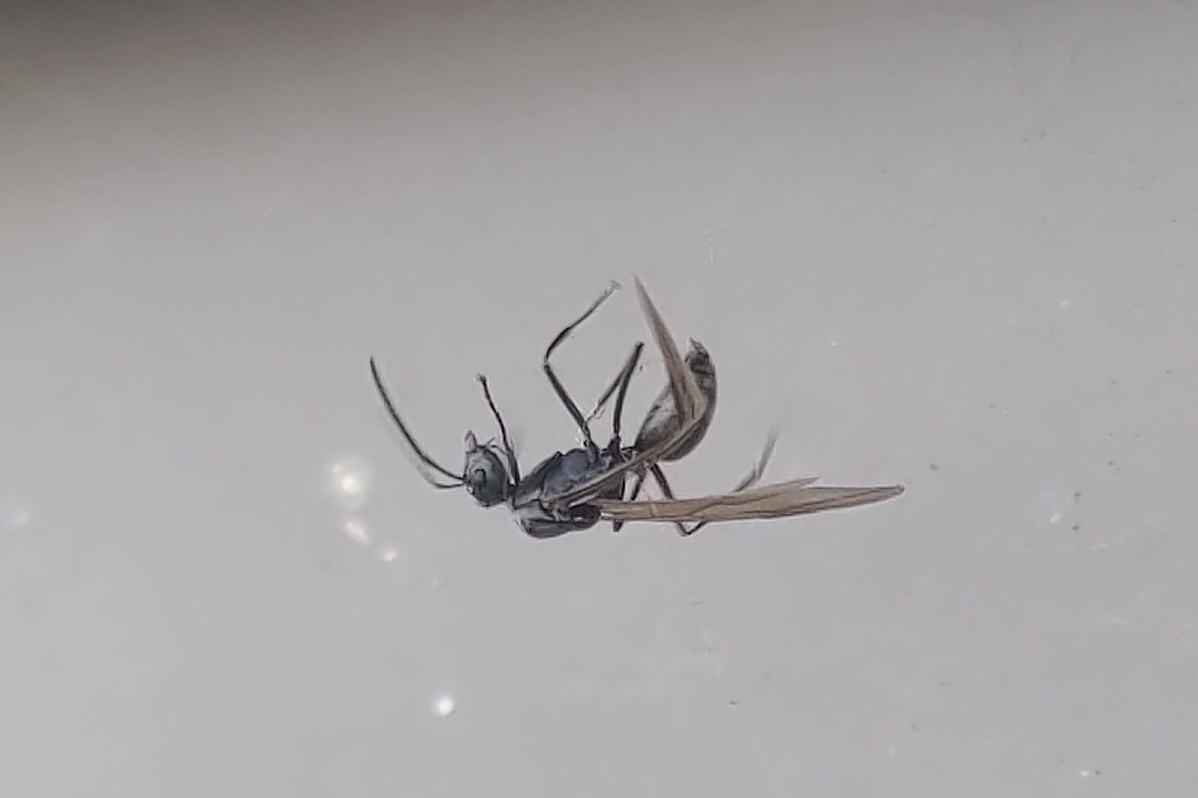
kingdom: Animalia
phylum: Arthropoda
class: Insecta
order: Hymenoptera
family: Formicidae
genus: Polyrhachis
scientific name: Polyrhachis dives
